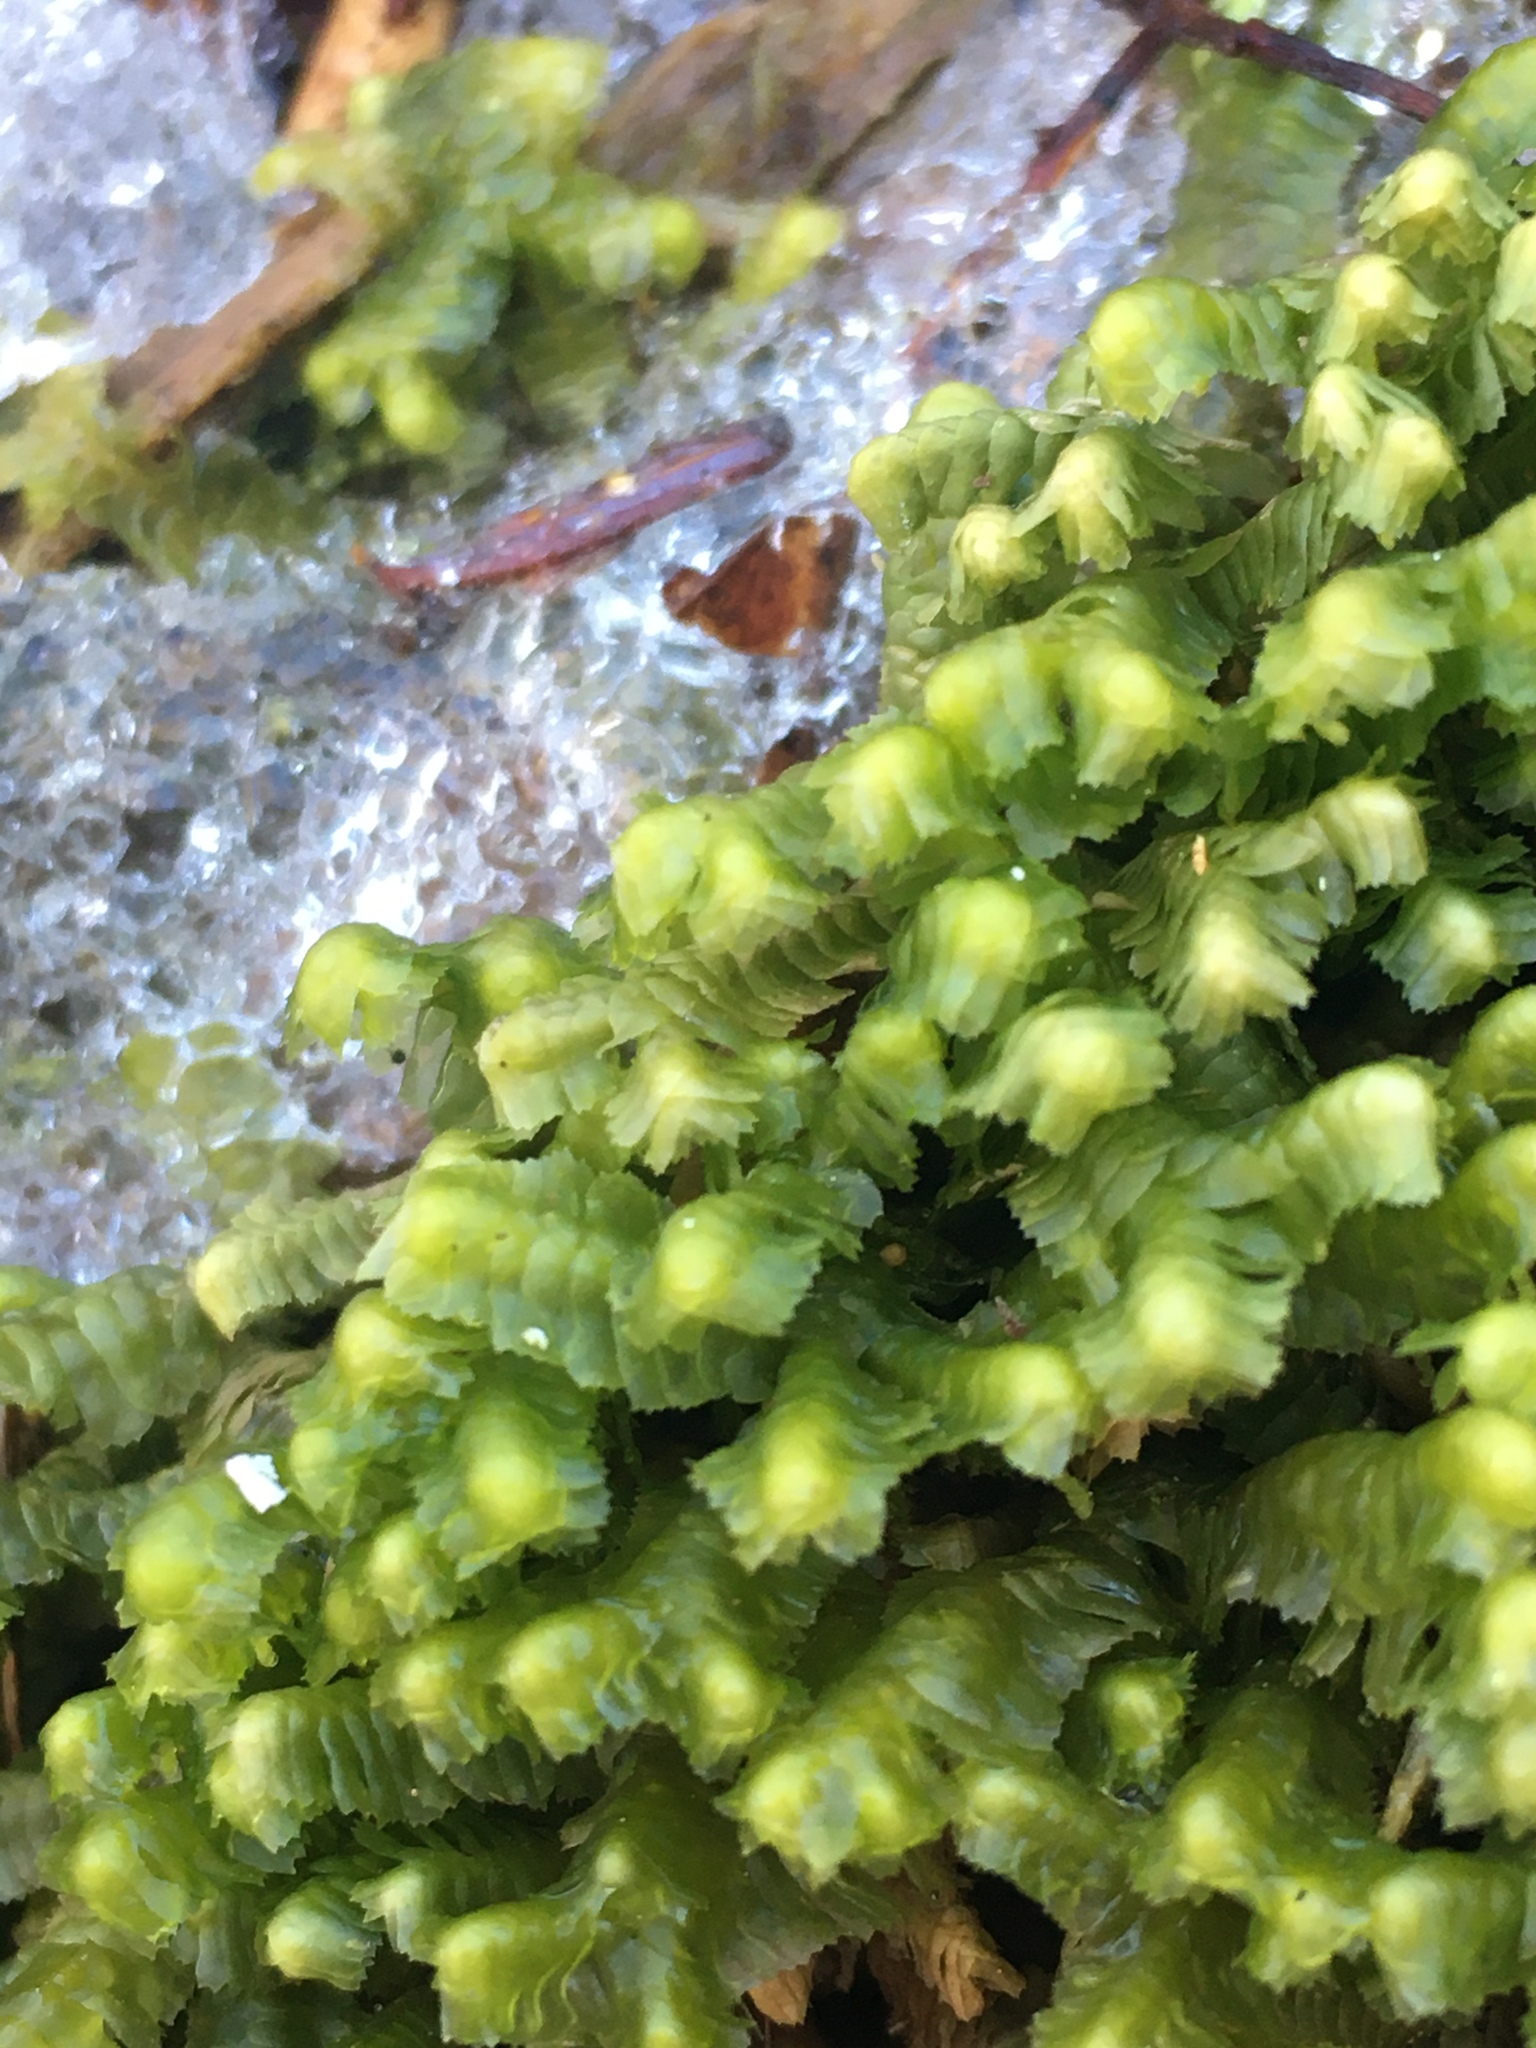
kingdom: Plantae
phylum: Marchantiophyta
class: Jungermanniopsida
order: Jungermanniales
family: Lepidoziaceae
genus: Bazzania
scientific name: Bazzania trilobata
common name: Three-lobed whipwort
